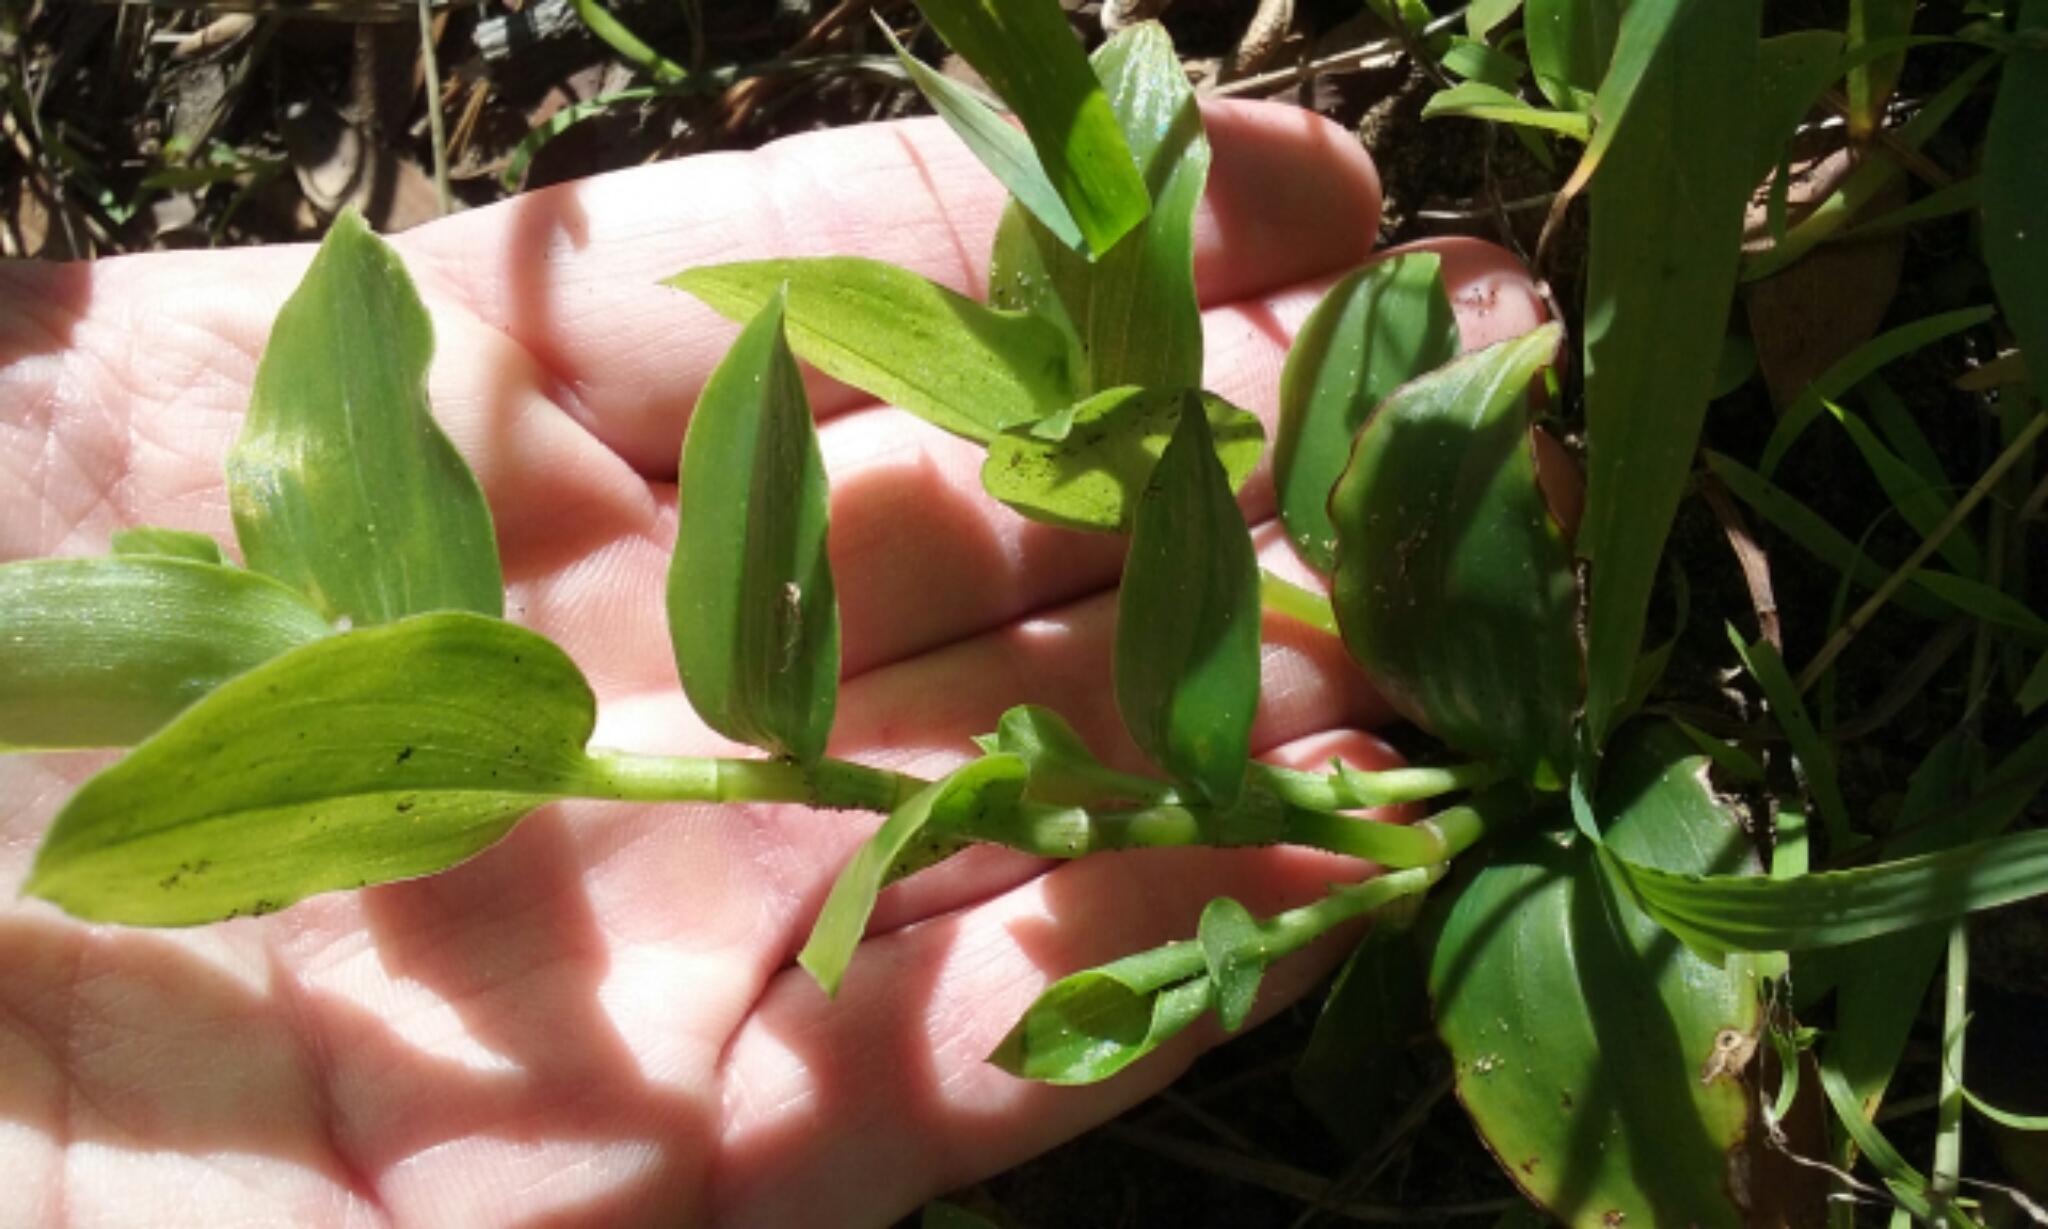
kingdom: Plantae
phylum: Tracheophyta
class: Liliopsida
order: Commelinales
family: Commelinaceae
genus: Tradescantia
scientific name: Tradescantia fluminensis
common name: Wandering-jew
